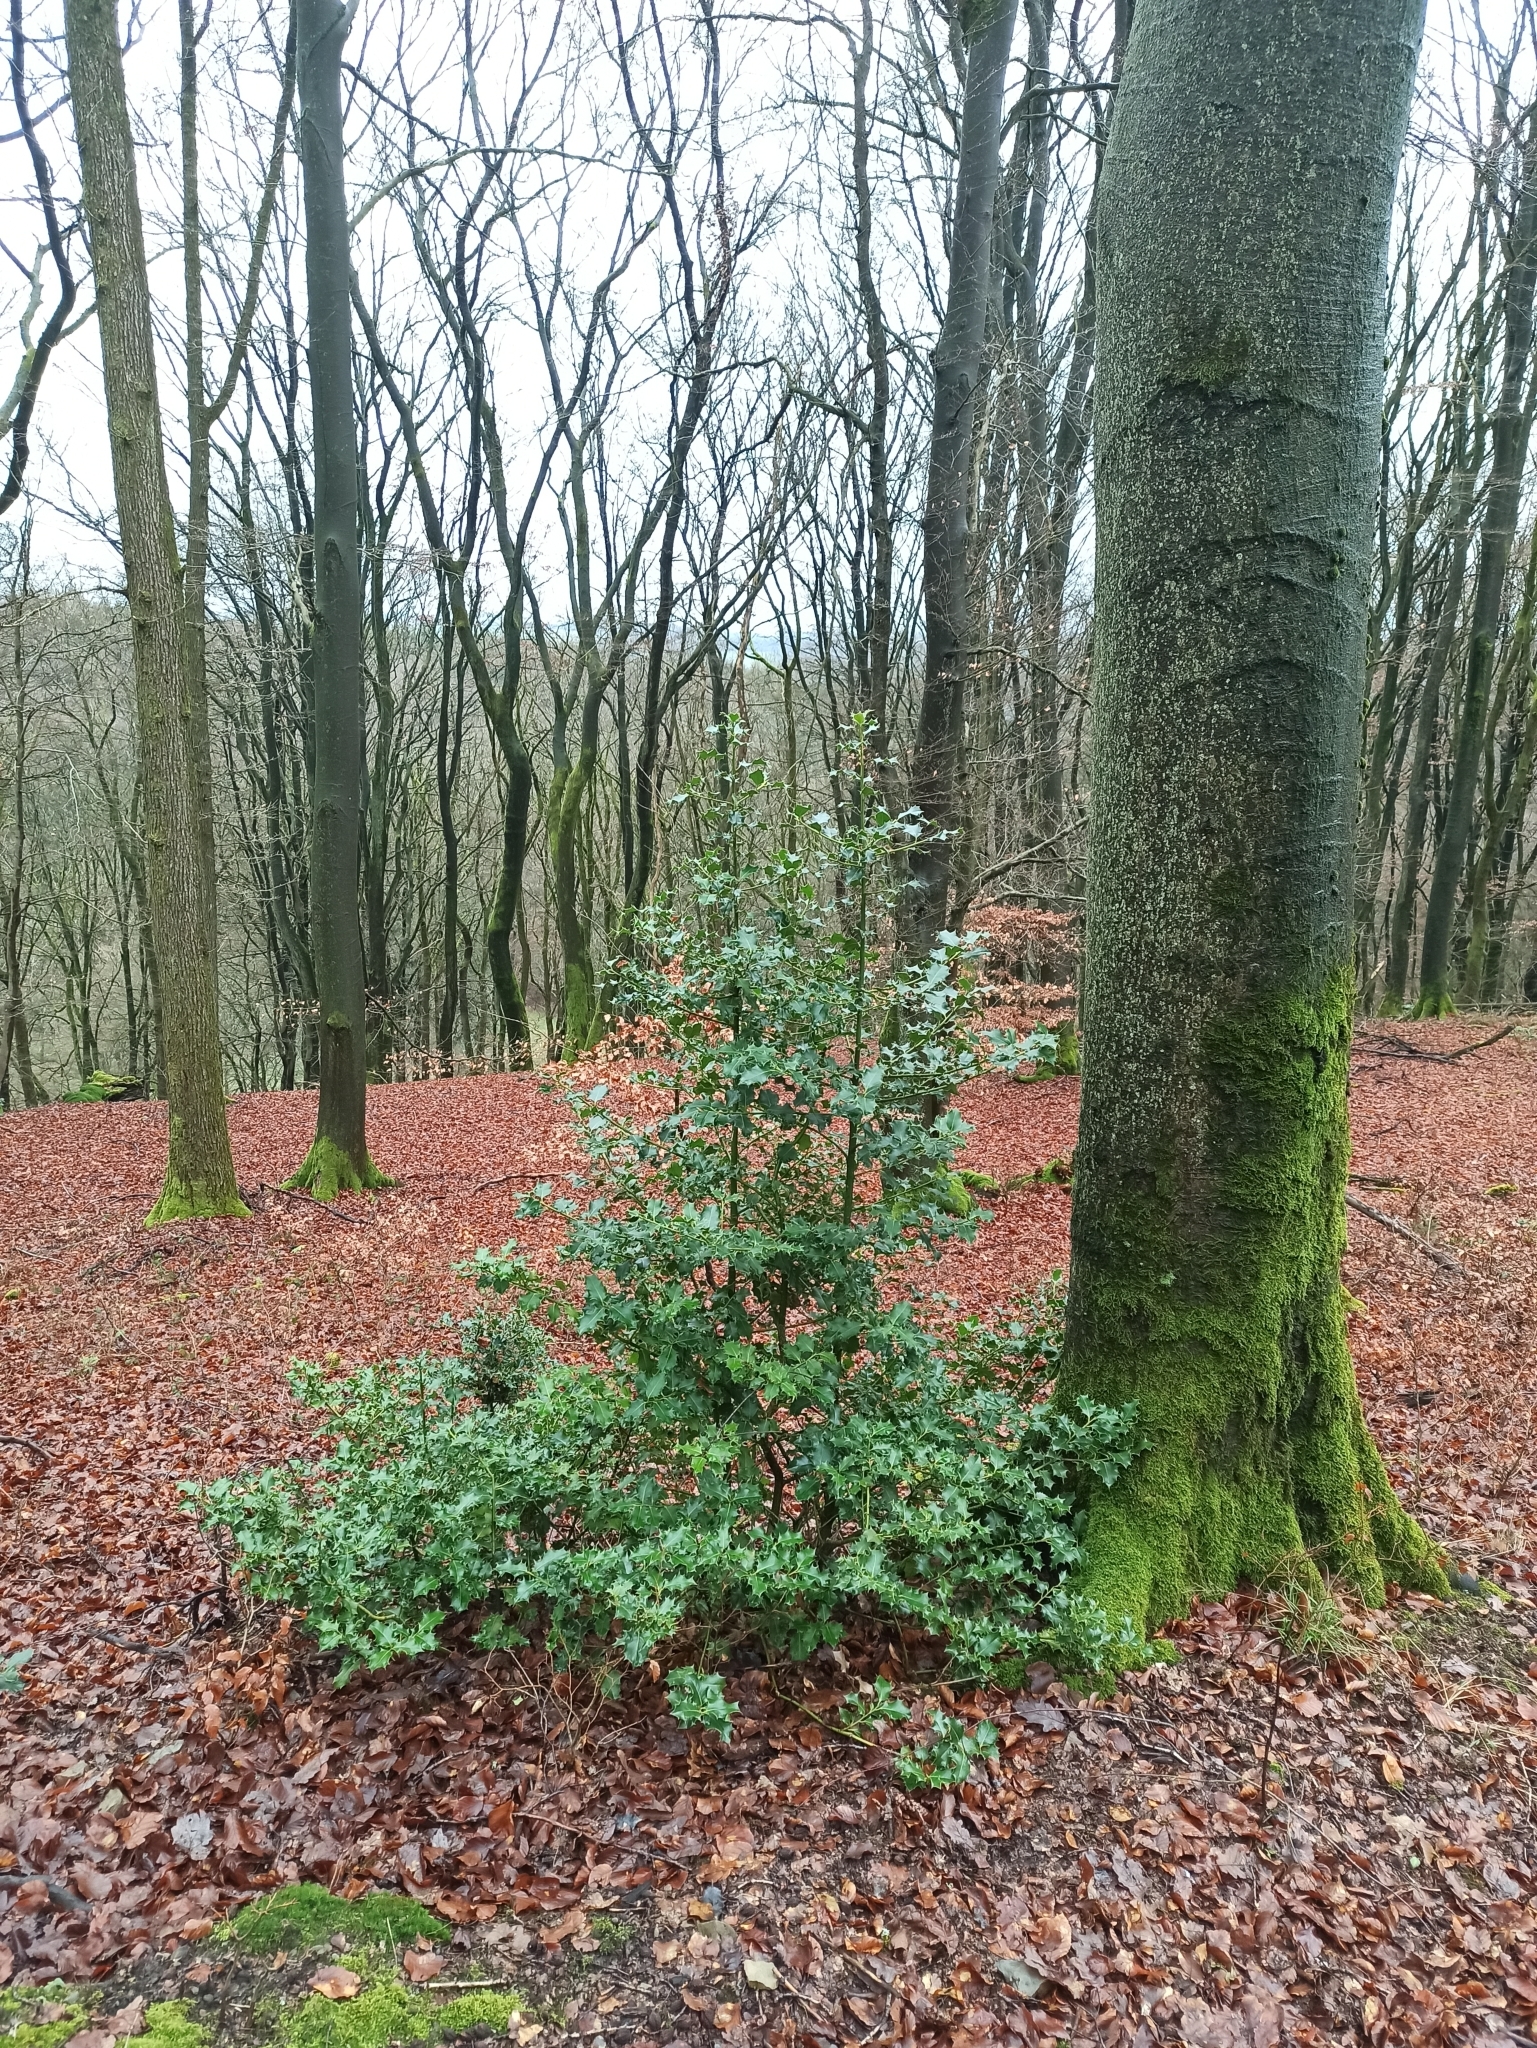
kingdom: Plantae
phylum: Tracheophyta
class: Magnoliopsida
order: Aquifoliales
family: Aquifoliaceae
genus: Ilex
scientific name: Ilex aquifolium
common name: English holly
